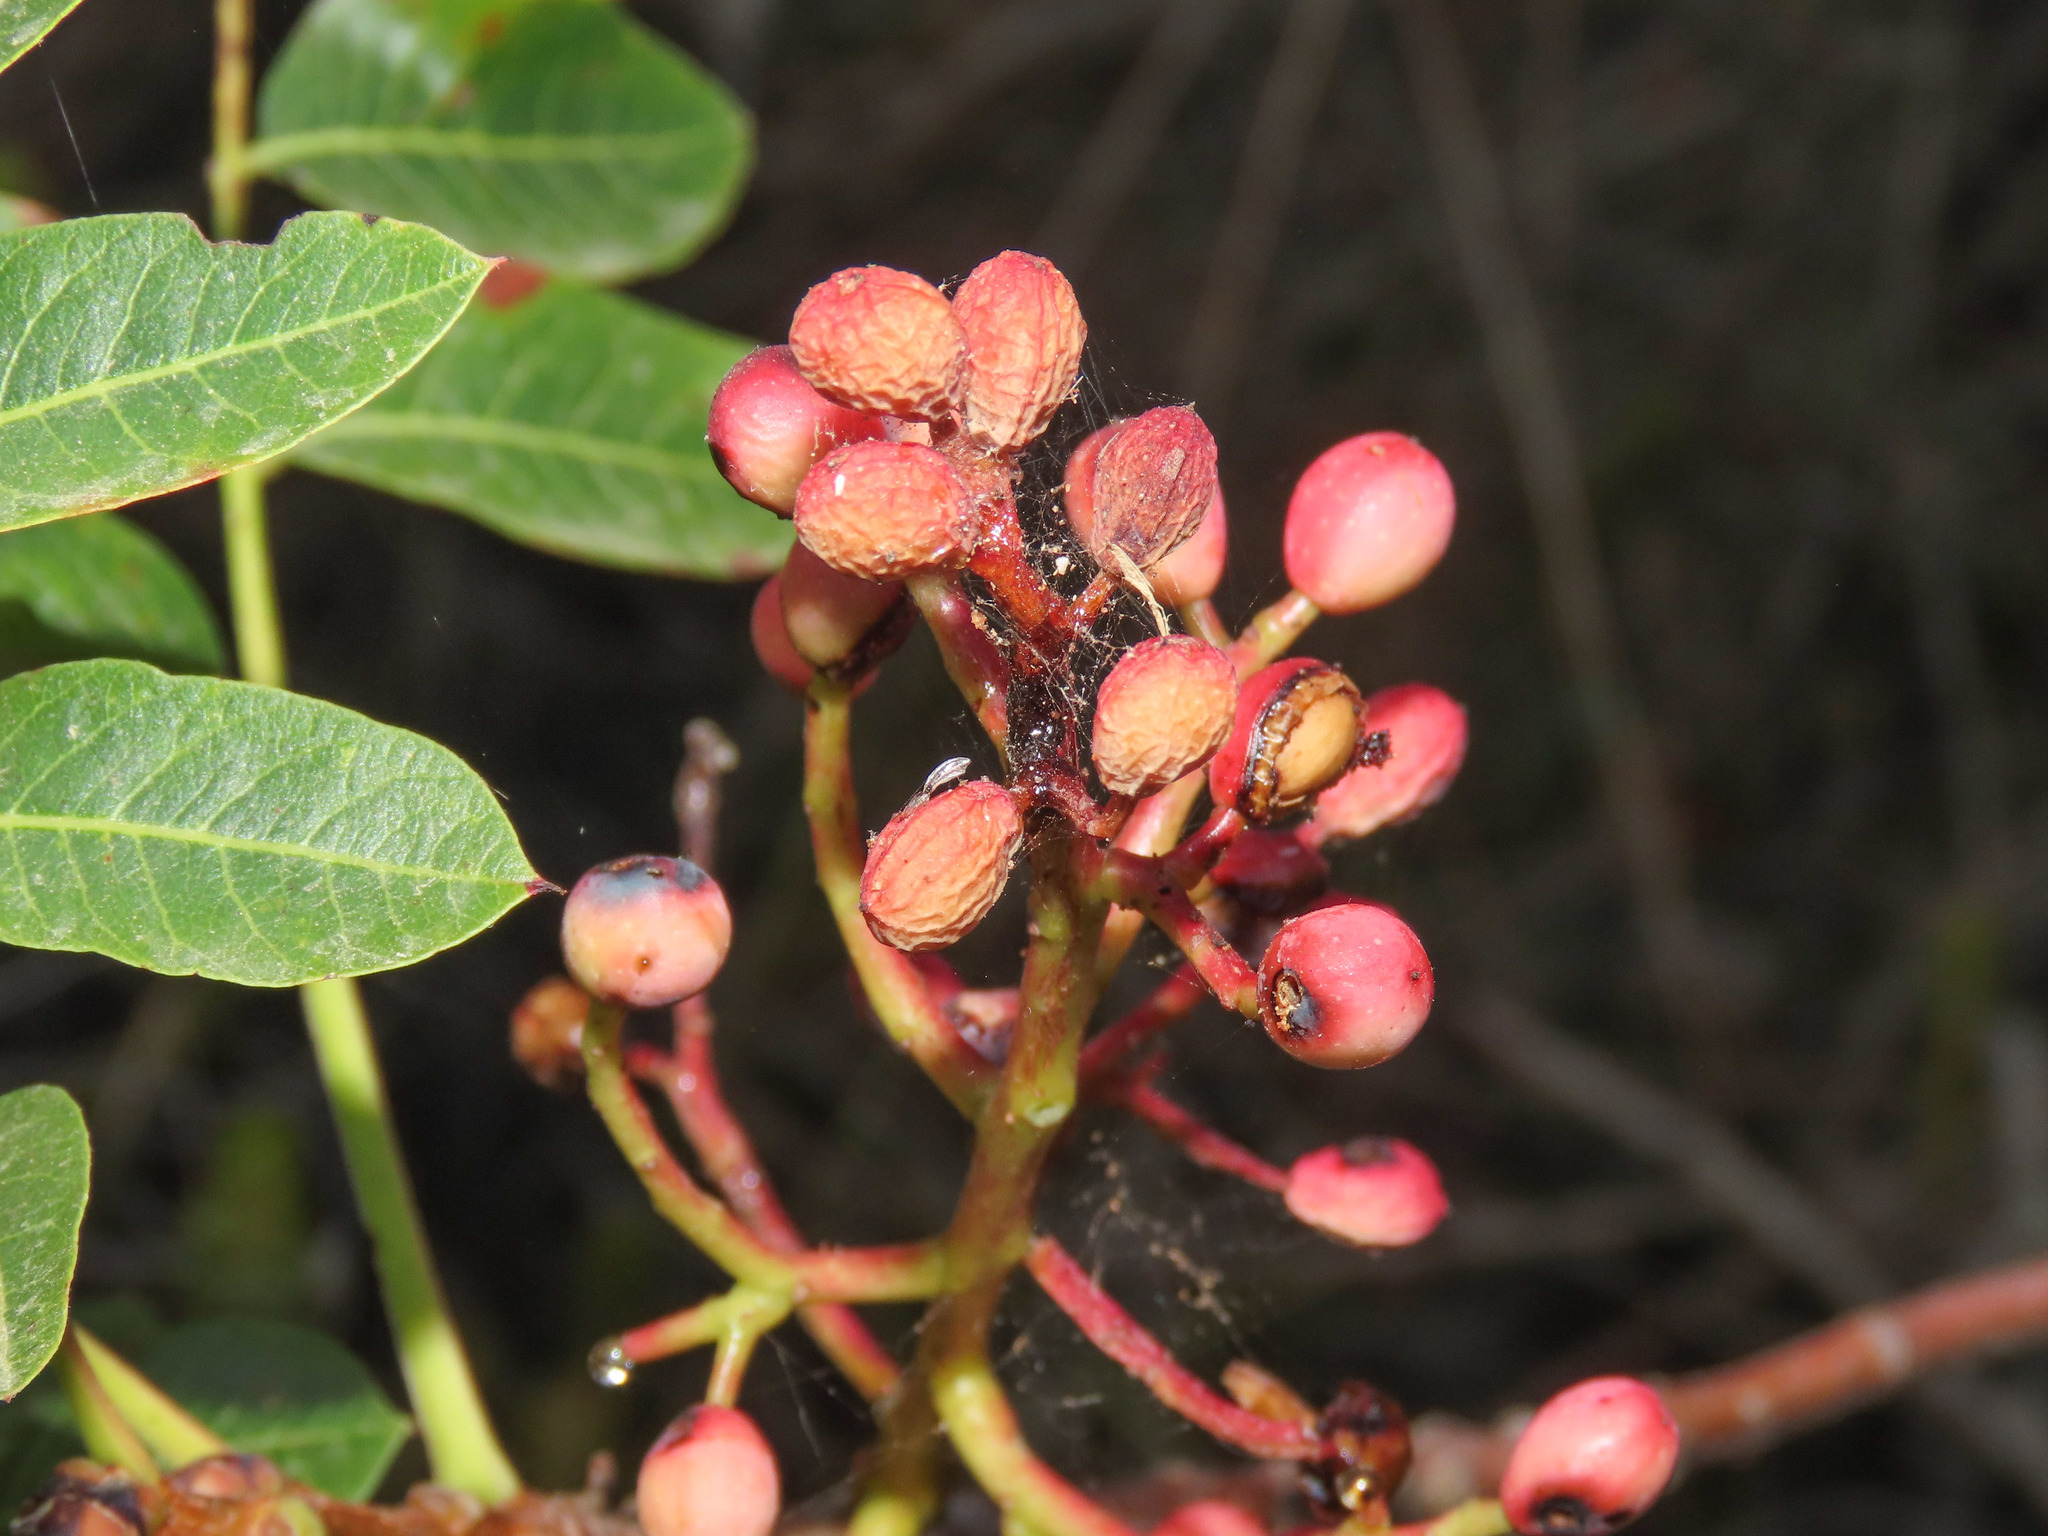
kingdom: Plantae
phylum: Tracheophyta
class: Magnoliopsida
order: Sapindales
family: Anacardiaceae
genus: Pistacia
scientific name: Pistacia terebinthus
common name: Terebinth
